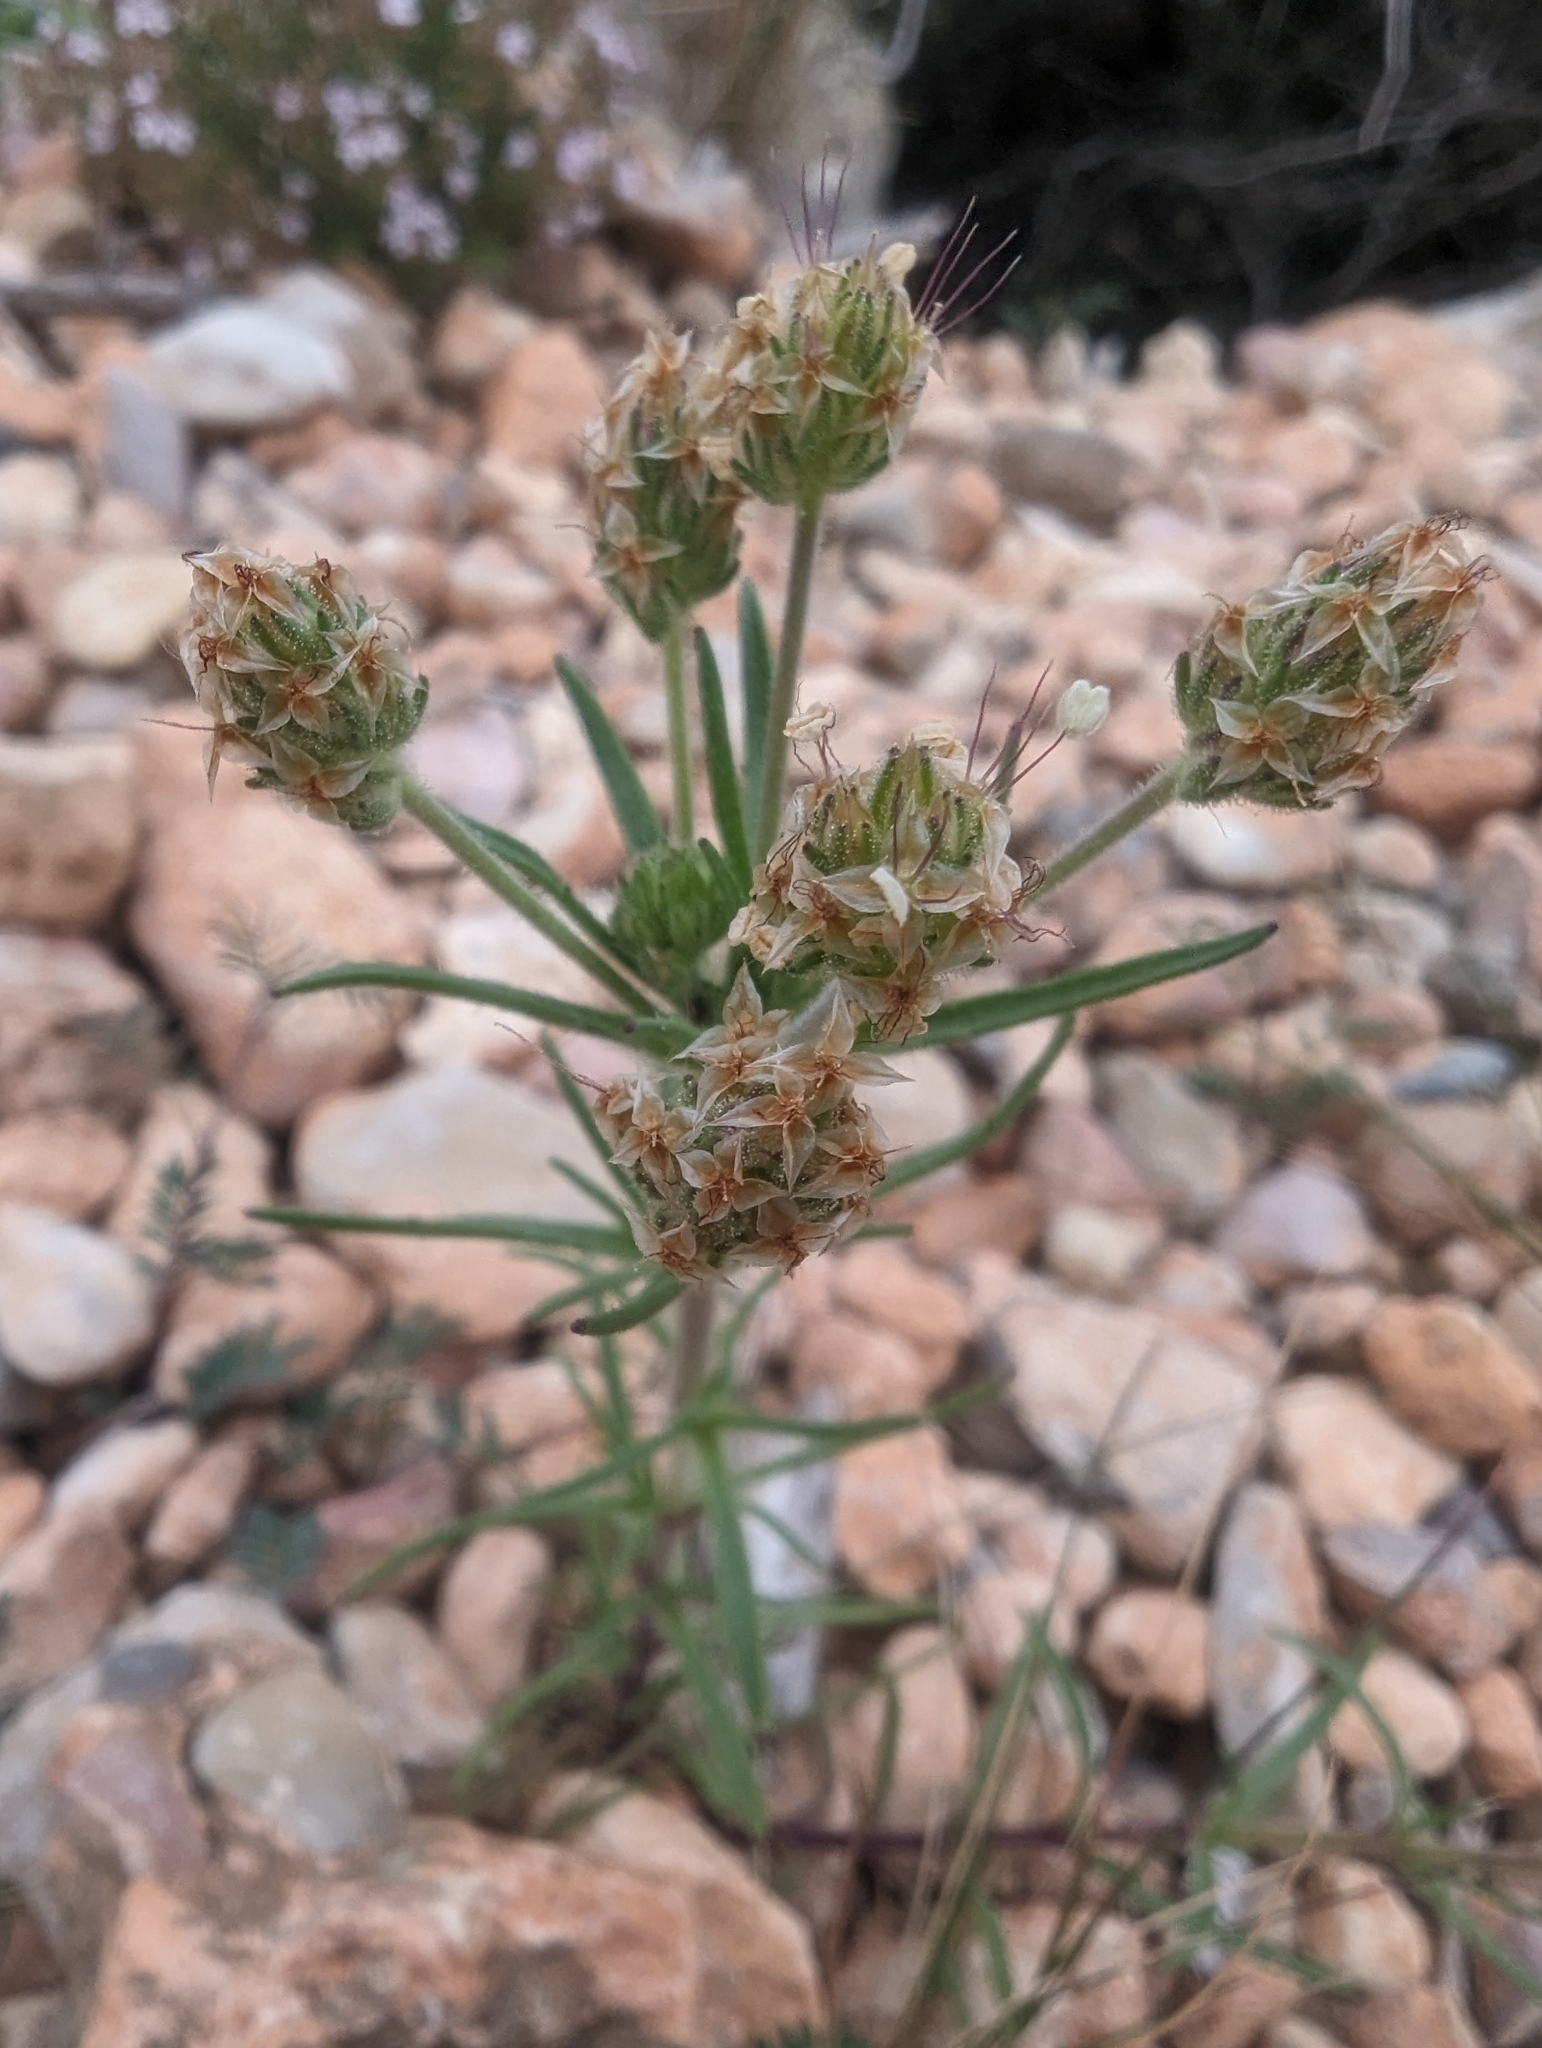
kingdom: Plantae
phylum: Tracheophyta
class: Magnoliopsida
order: Lamiales
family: Plantaginaceae
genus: Plantago
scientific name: Plantago afra
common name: Glandular plantain
